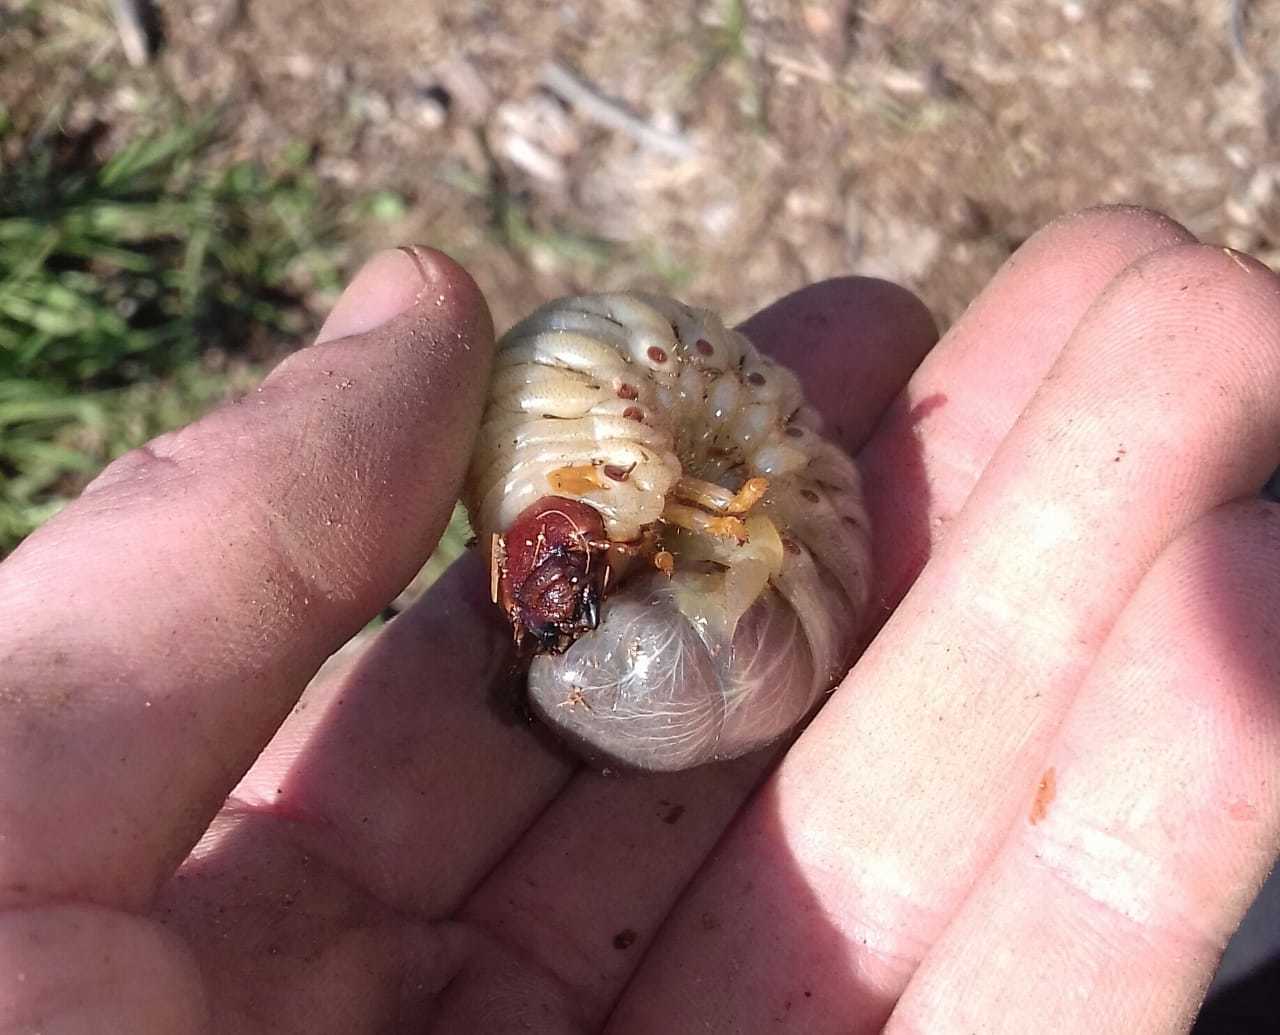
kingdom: Animalia
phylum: Arthropoda
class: Insecta
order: Coleoptera
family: Scarabaeidae
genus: Oryctes
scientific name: Oryctes boas
